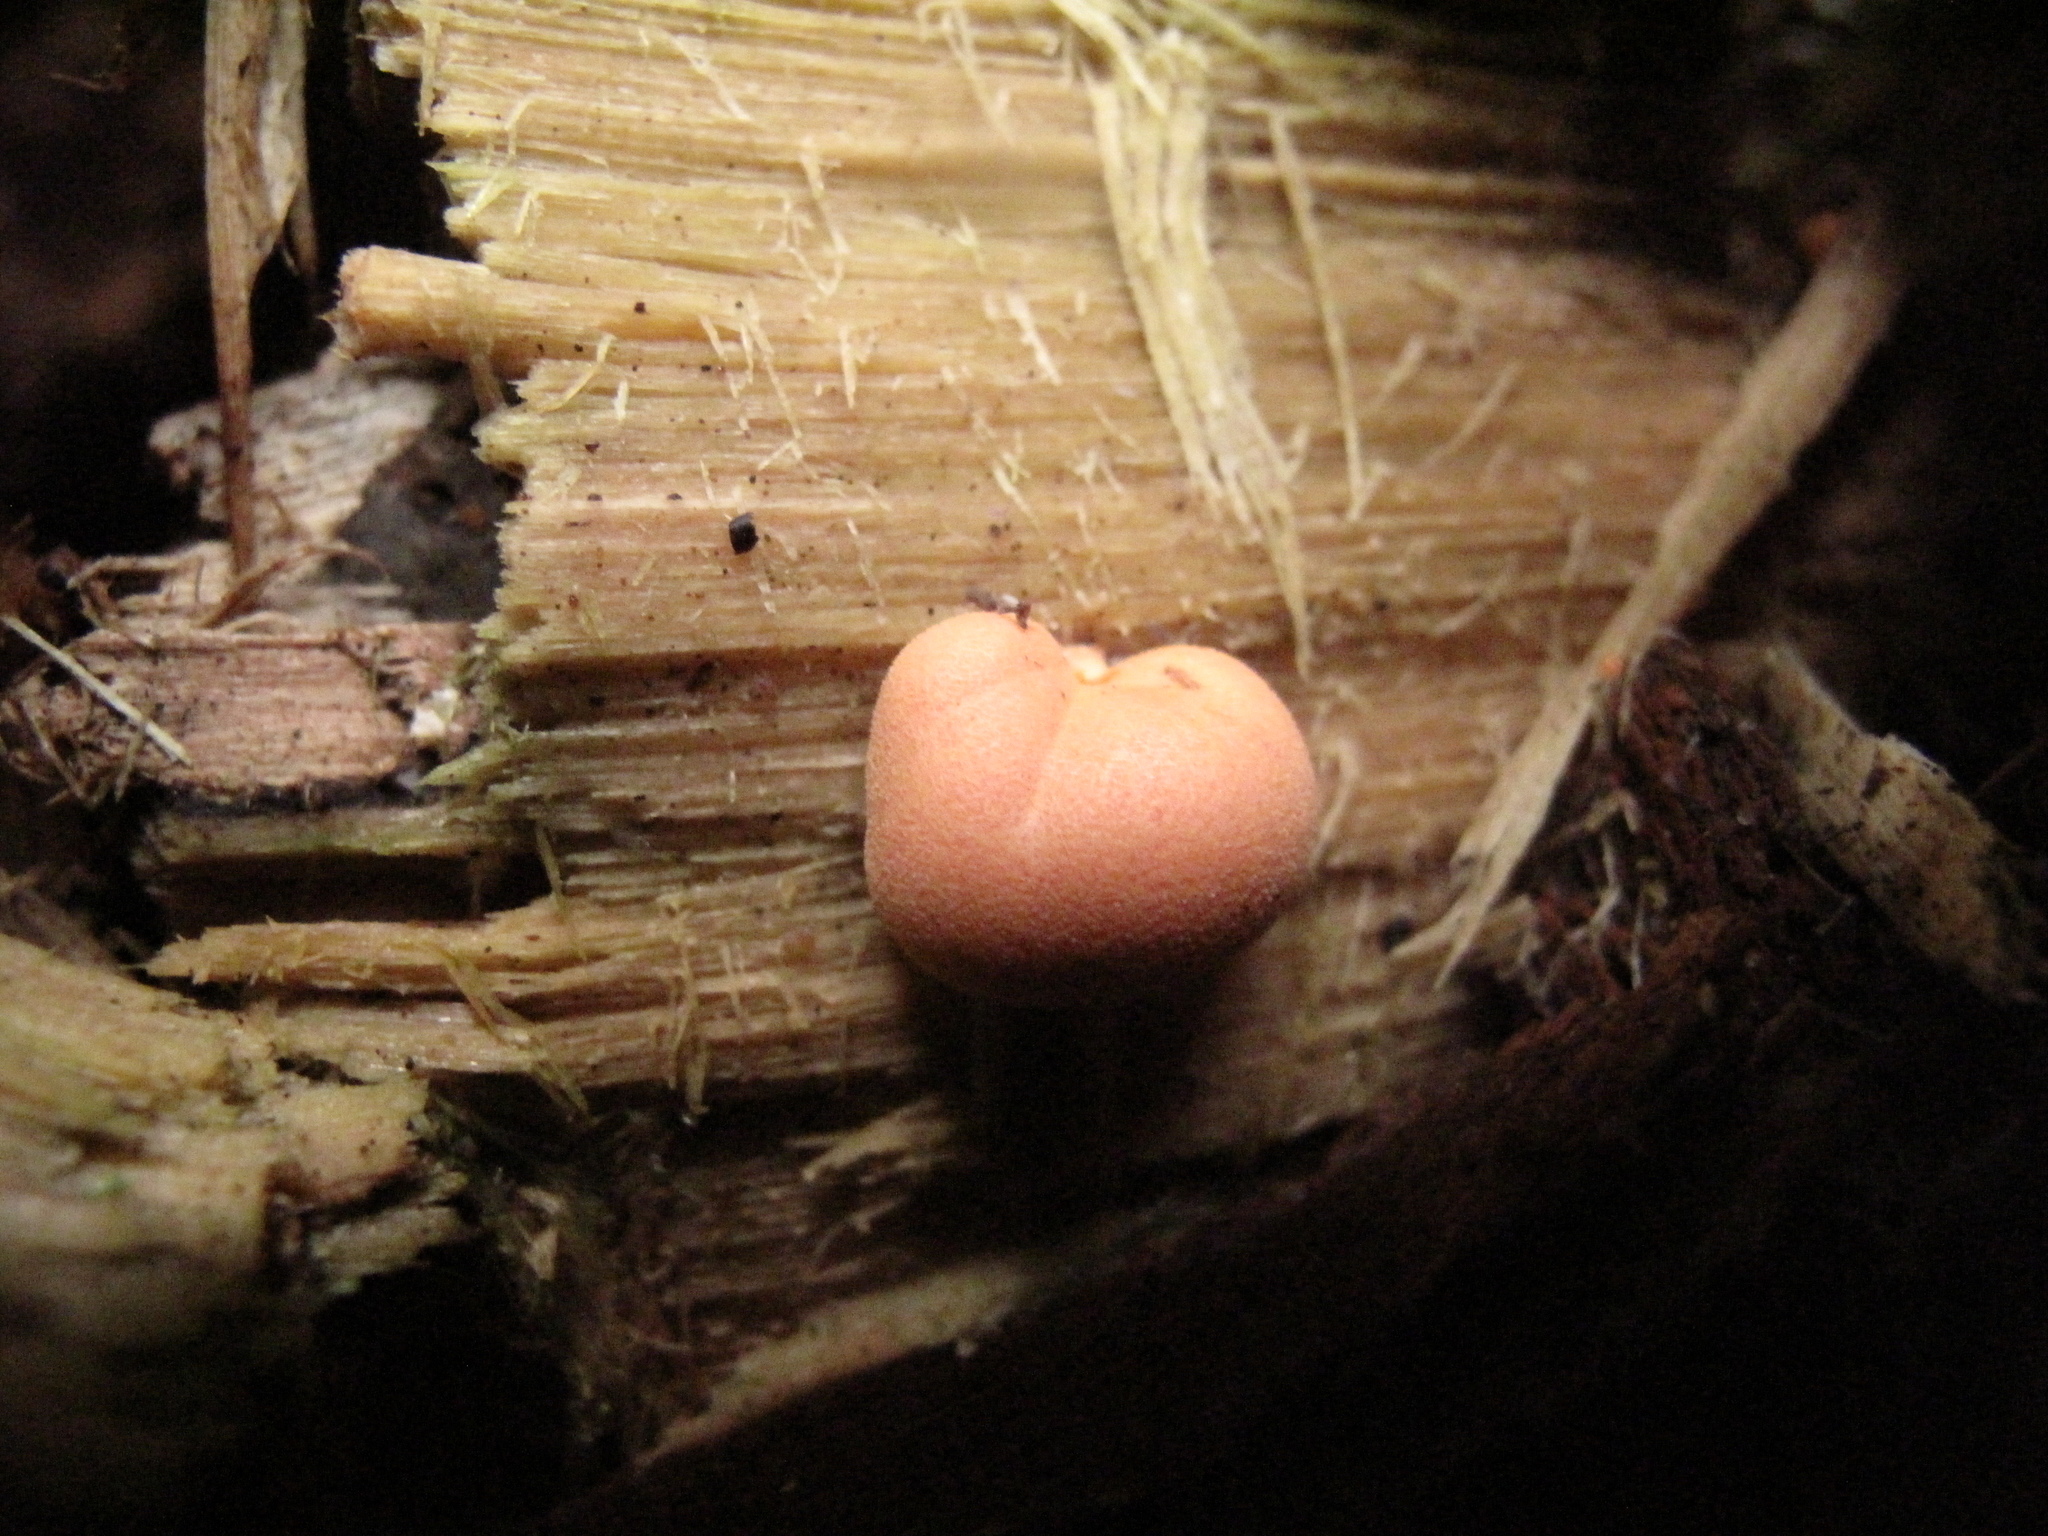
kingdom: Protozoa
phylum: Mycetozoa
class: Myxomycetes
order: Cribrariales
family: Tubiferaceae
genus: Lycogala
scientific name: Lycogala epidendrum
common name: Wolf's milk
